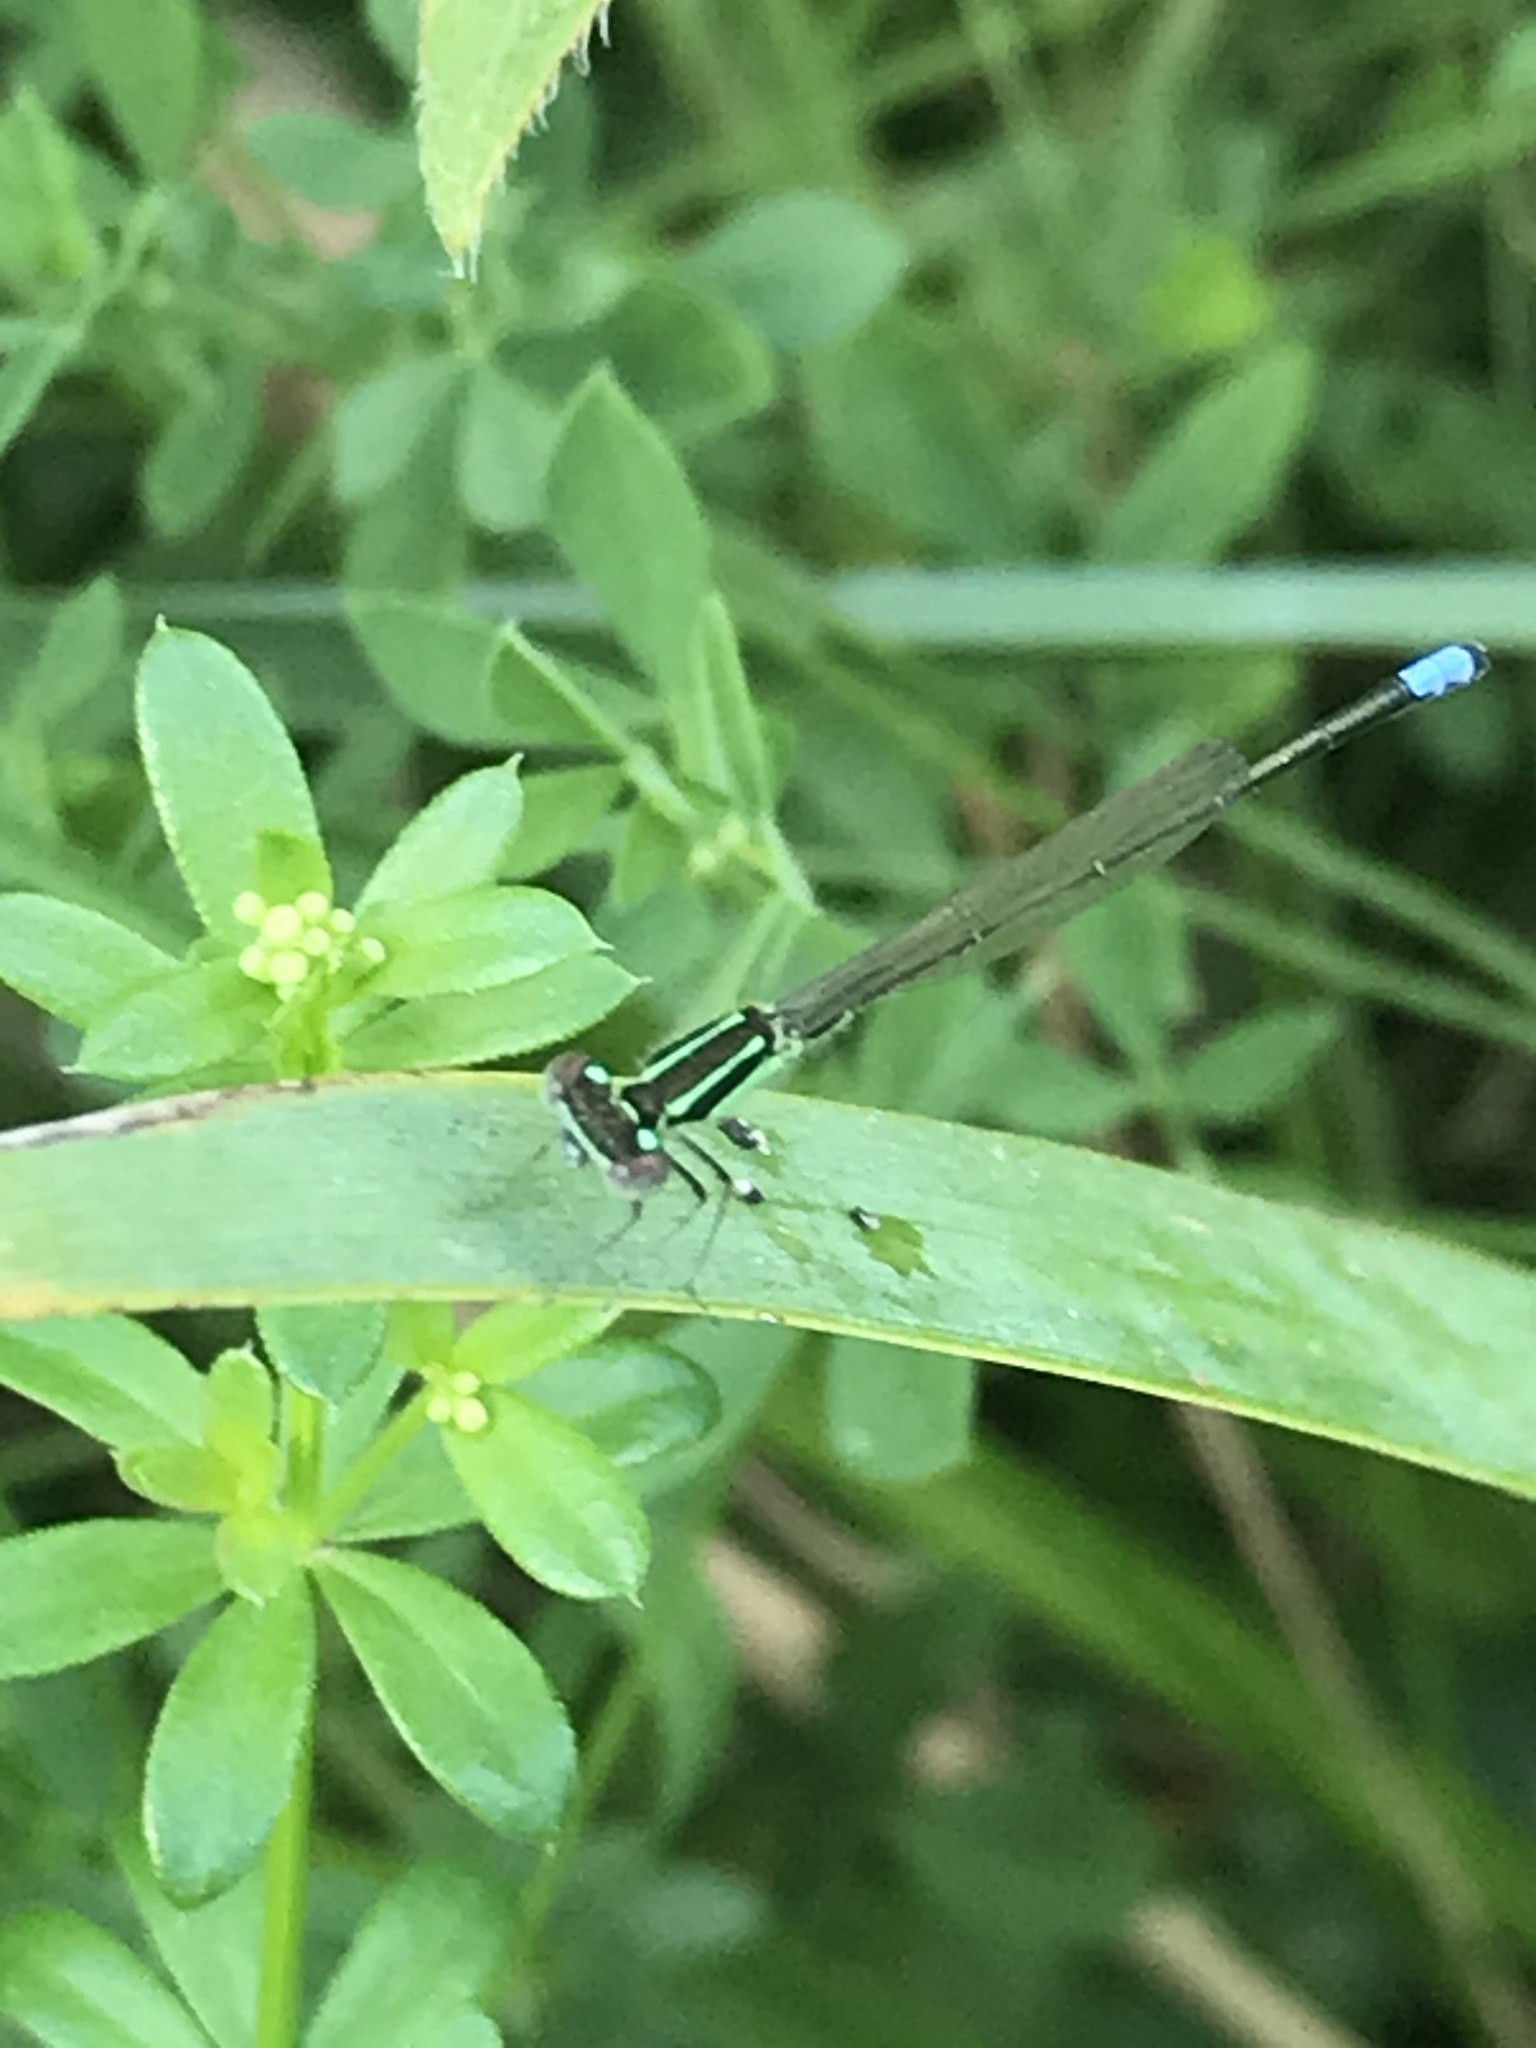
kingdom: Animalia
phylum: Arthropoda
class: Insecta
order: Odonata
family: Coenagrionidae
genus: Ischnura
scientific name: Ischnura verticalis
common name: Eastern forktail
